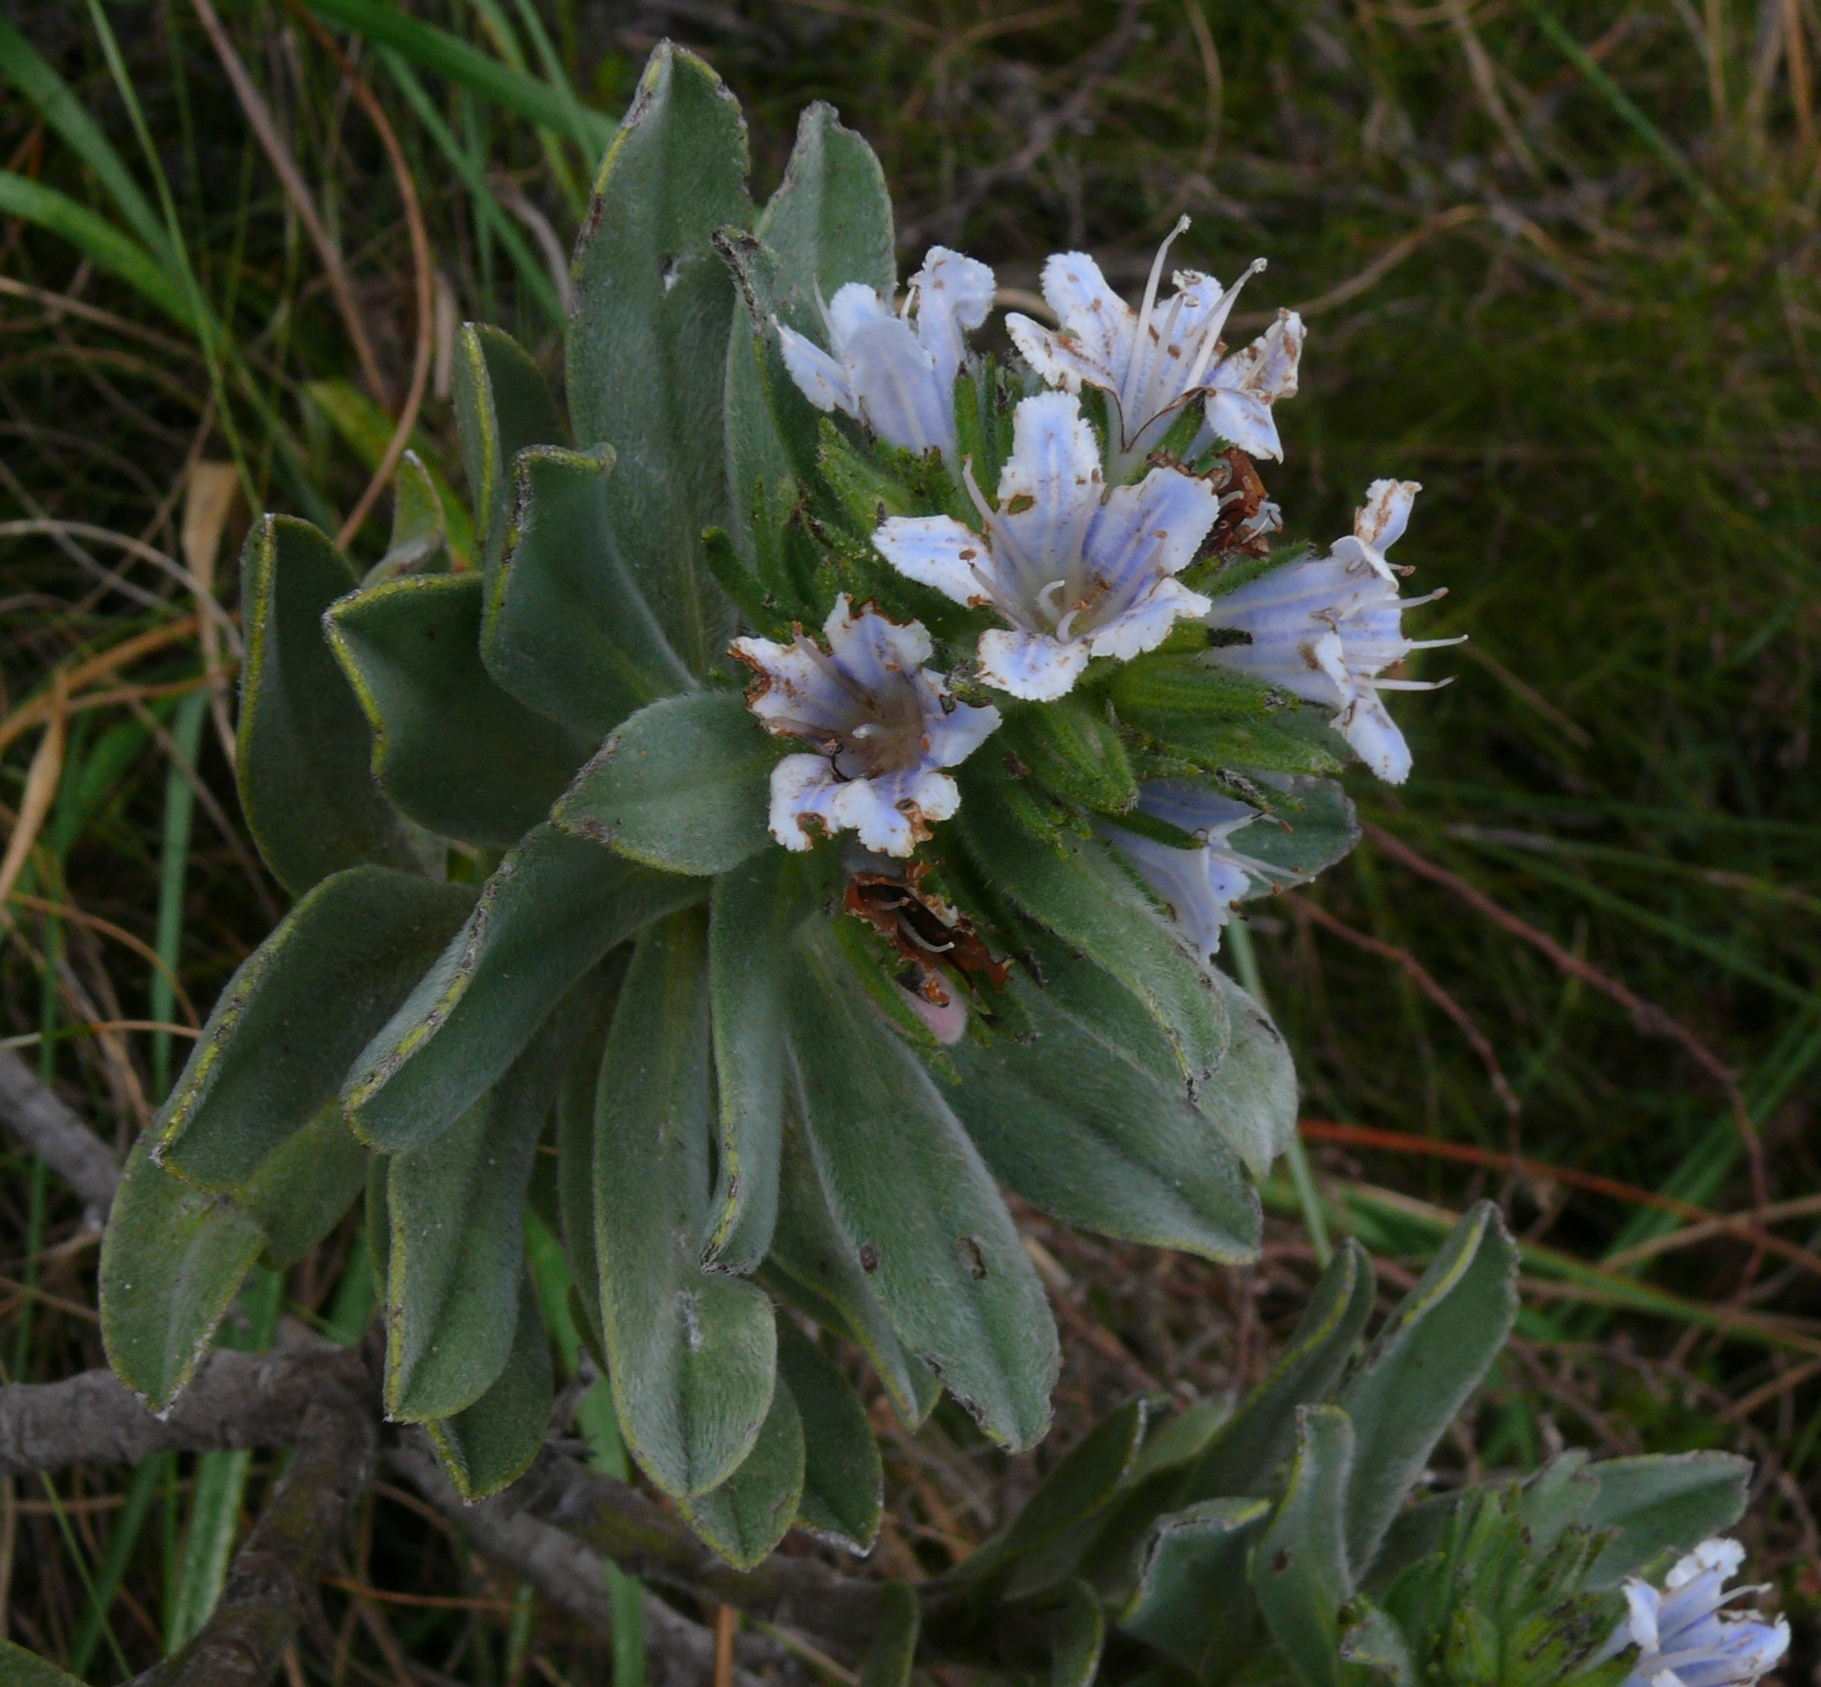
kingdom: Plantae
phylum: Tracheophyta
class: Magnoliopsida
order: Boraginales
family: Boraginaceae
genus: Lobostemon
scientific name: Lobostemon montanus
